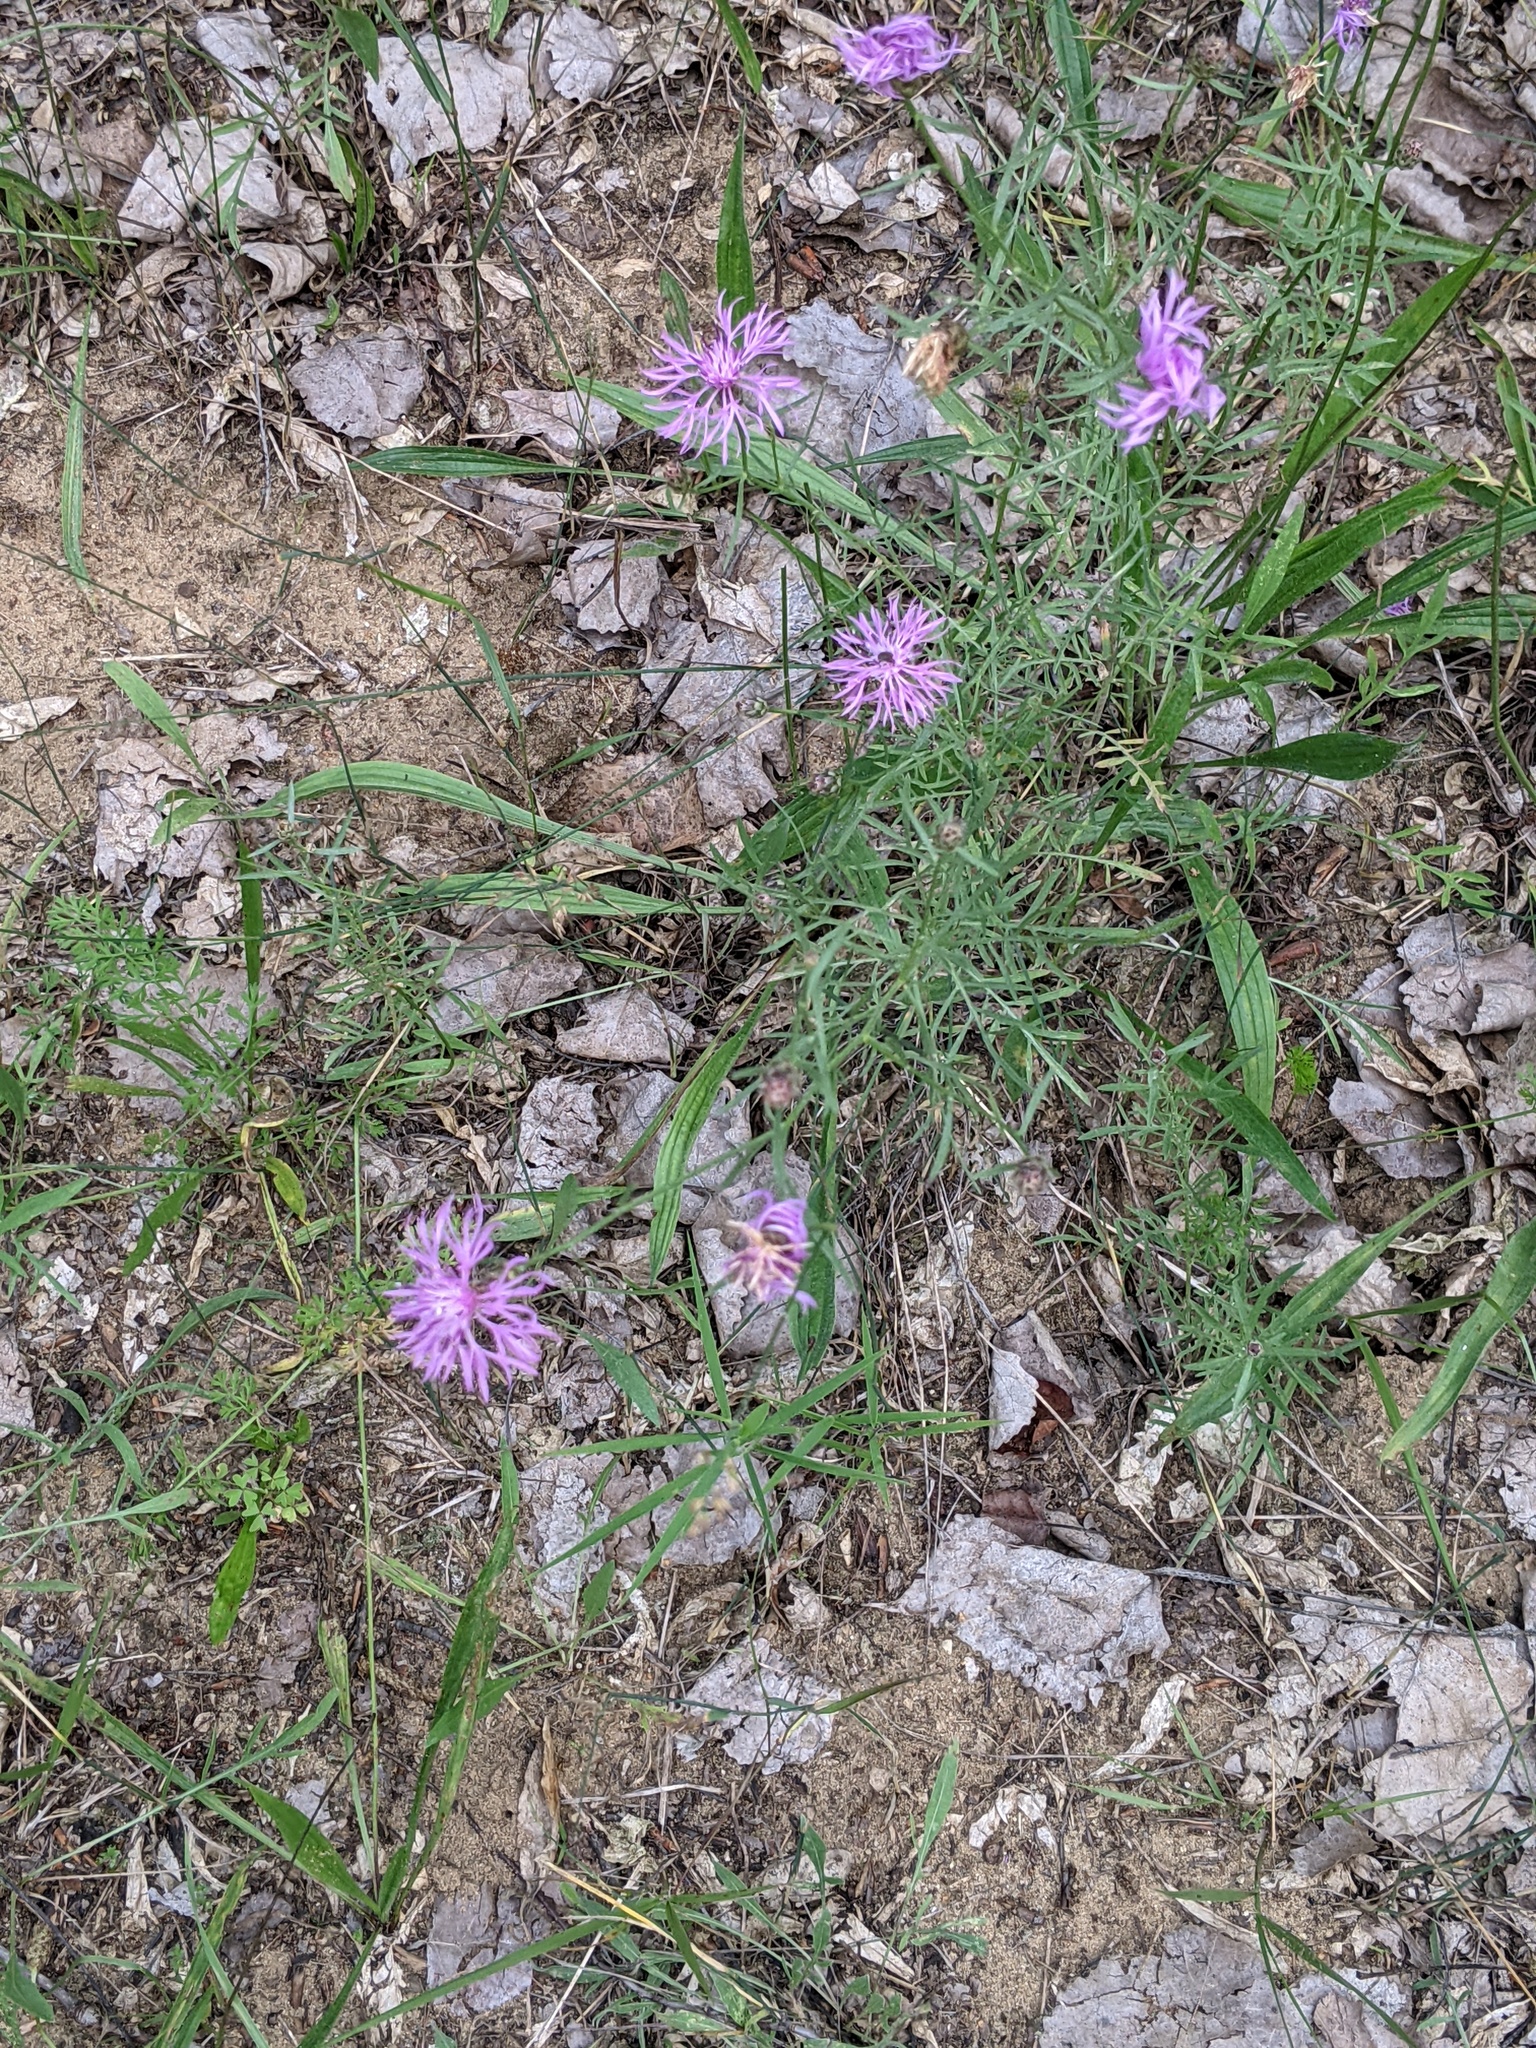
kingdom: Plantae
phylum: Tracheophyta
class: Magnoliopsida
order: Asterales
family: Asteraceae
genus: Centaurea
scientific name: Centaurea stoebe
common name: Spotted knapweed
